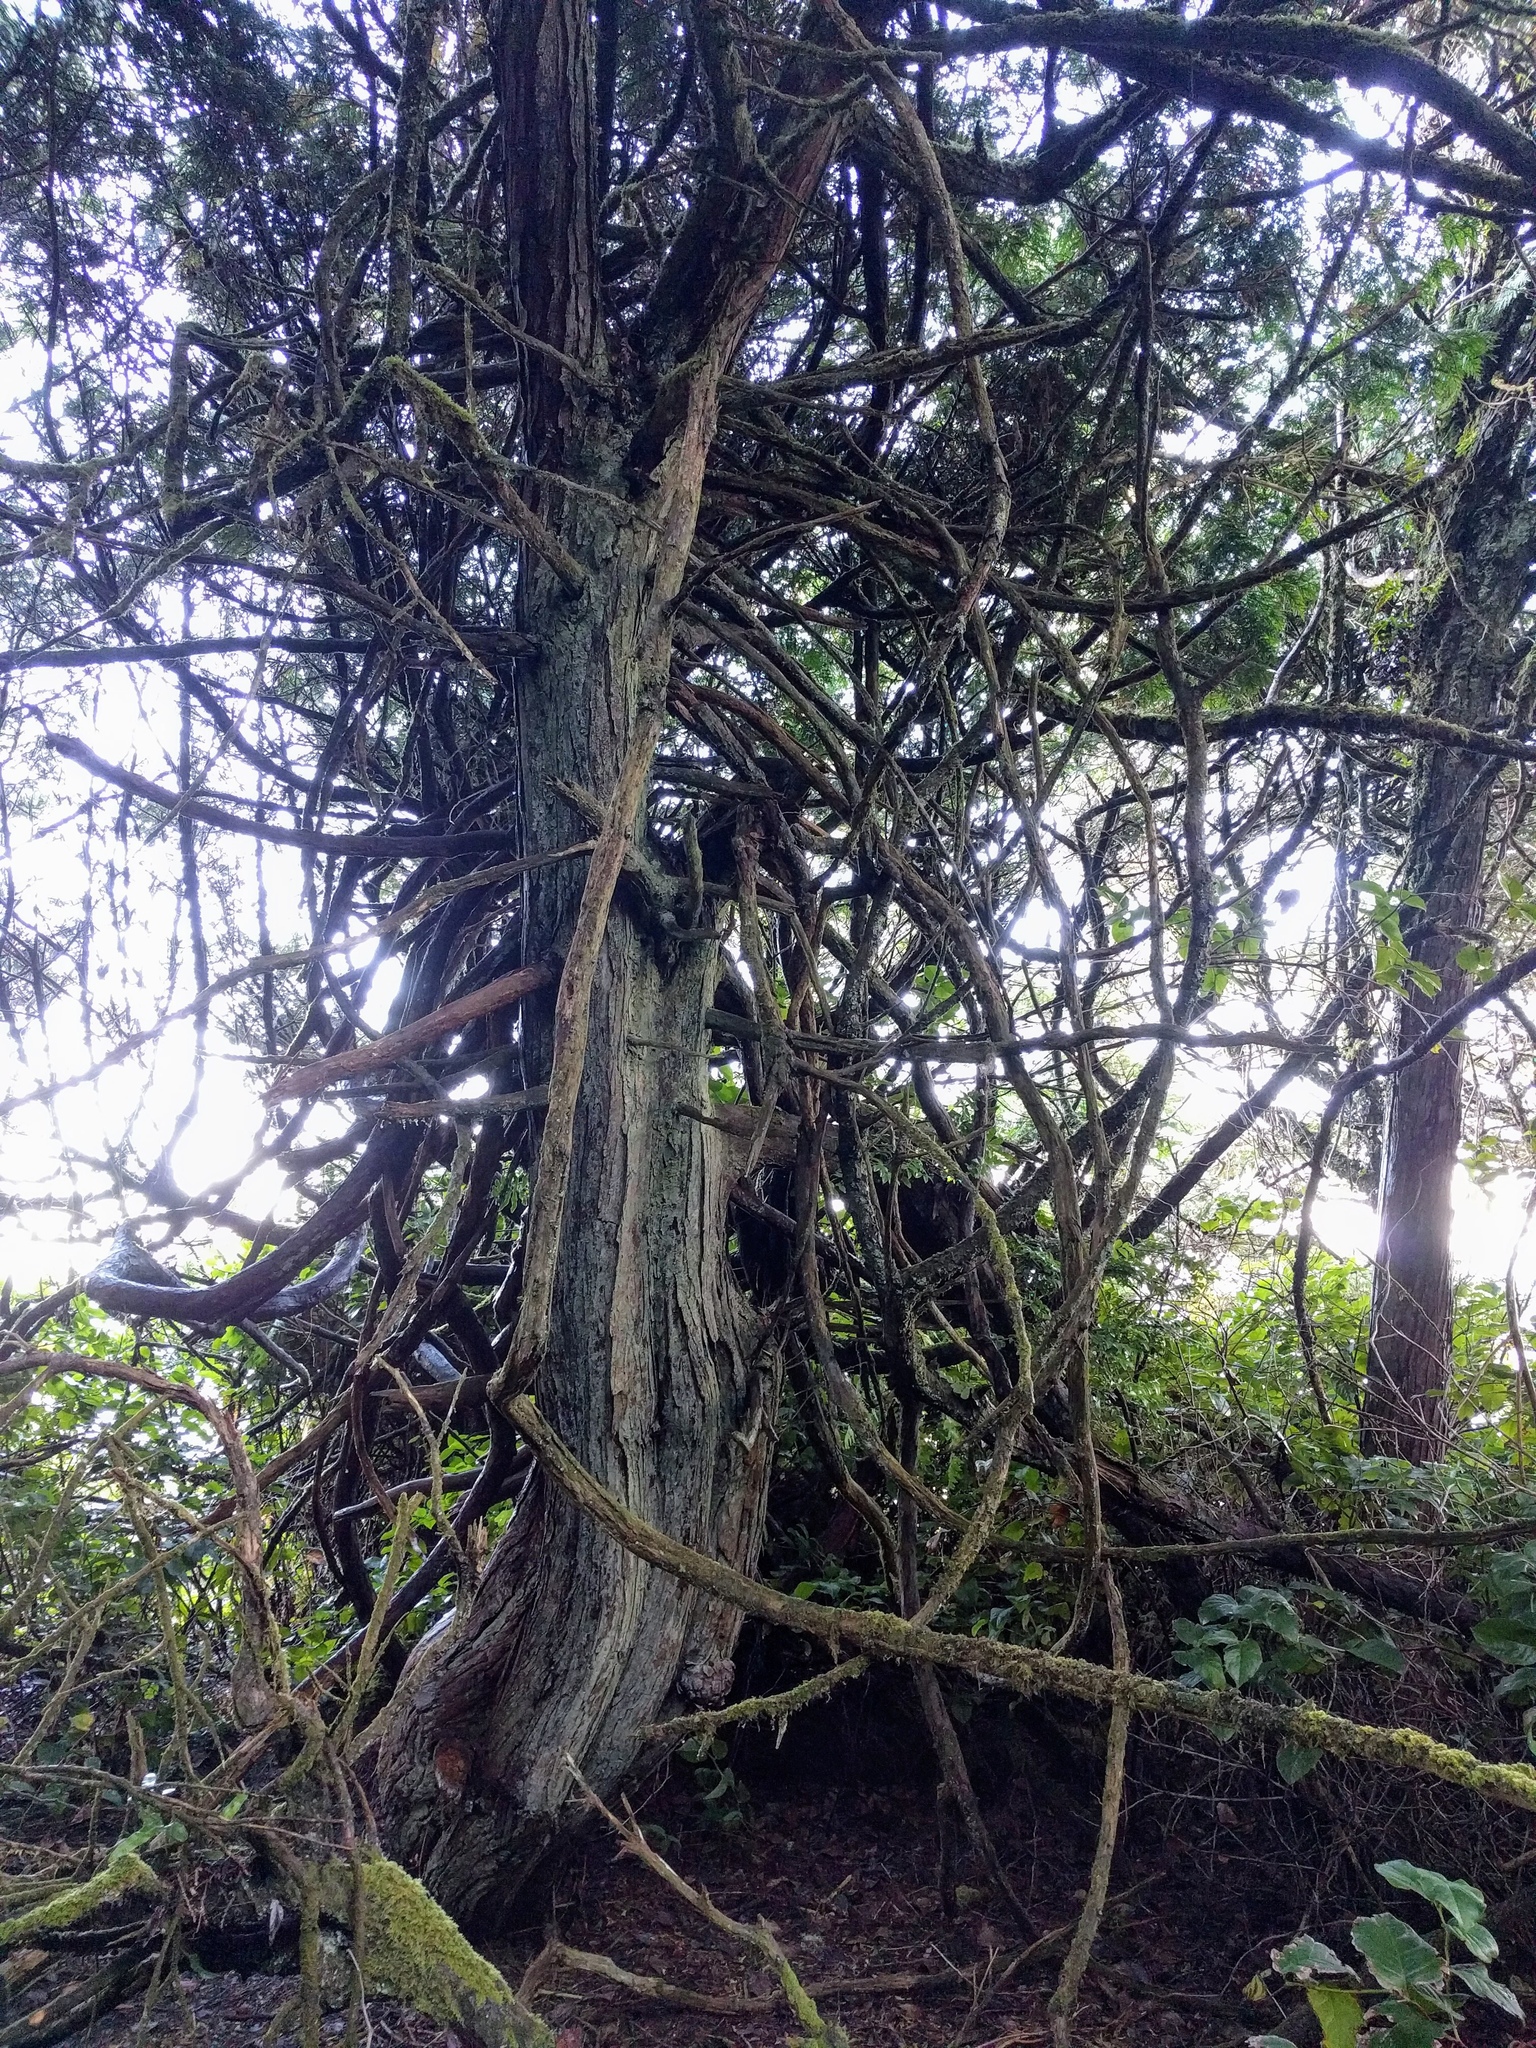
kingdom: Plantae
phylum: Tracheophyta
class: Pinopsida
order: Pinales
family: Cupressaceae
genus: Thuja
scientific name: Thuja plicata
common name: Western red-cedar
